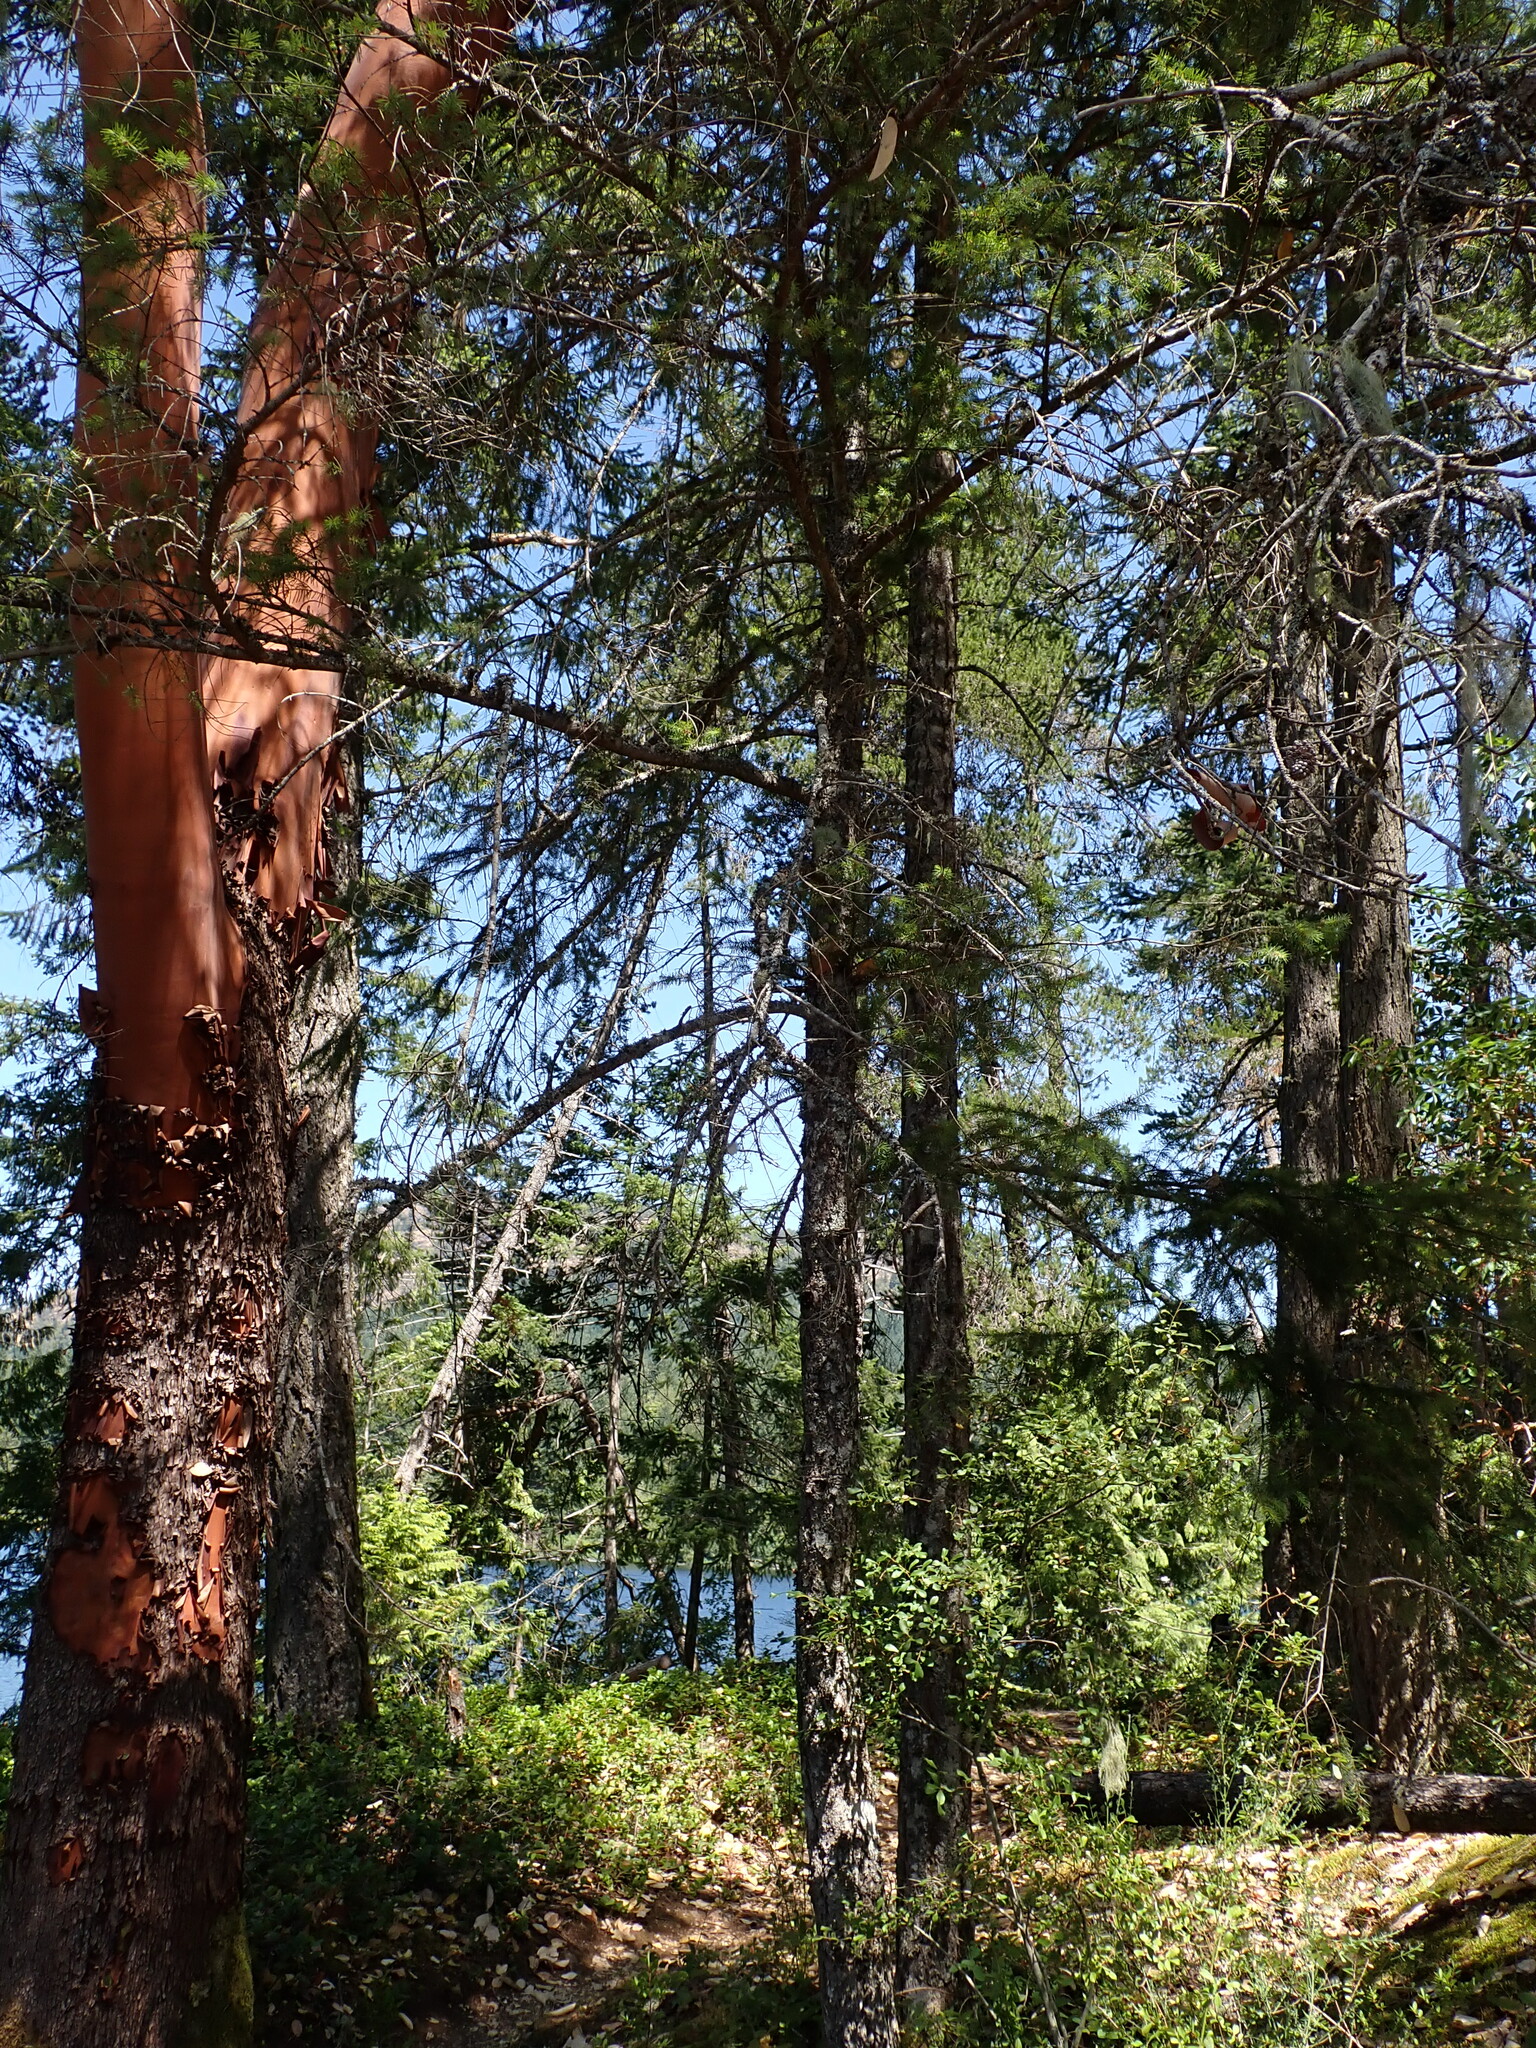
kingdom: Plantae
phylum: Tracheophyta
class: Magnoliopsida
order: Ericales
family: Ericaceae
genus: Arbutus
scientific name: Arbutus menziesii
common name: Pacific madrone
